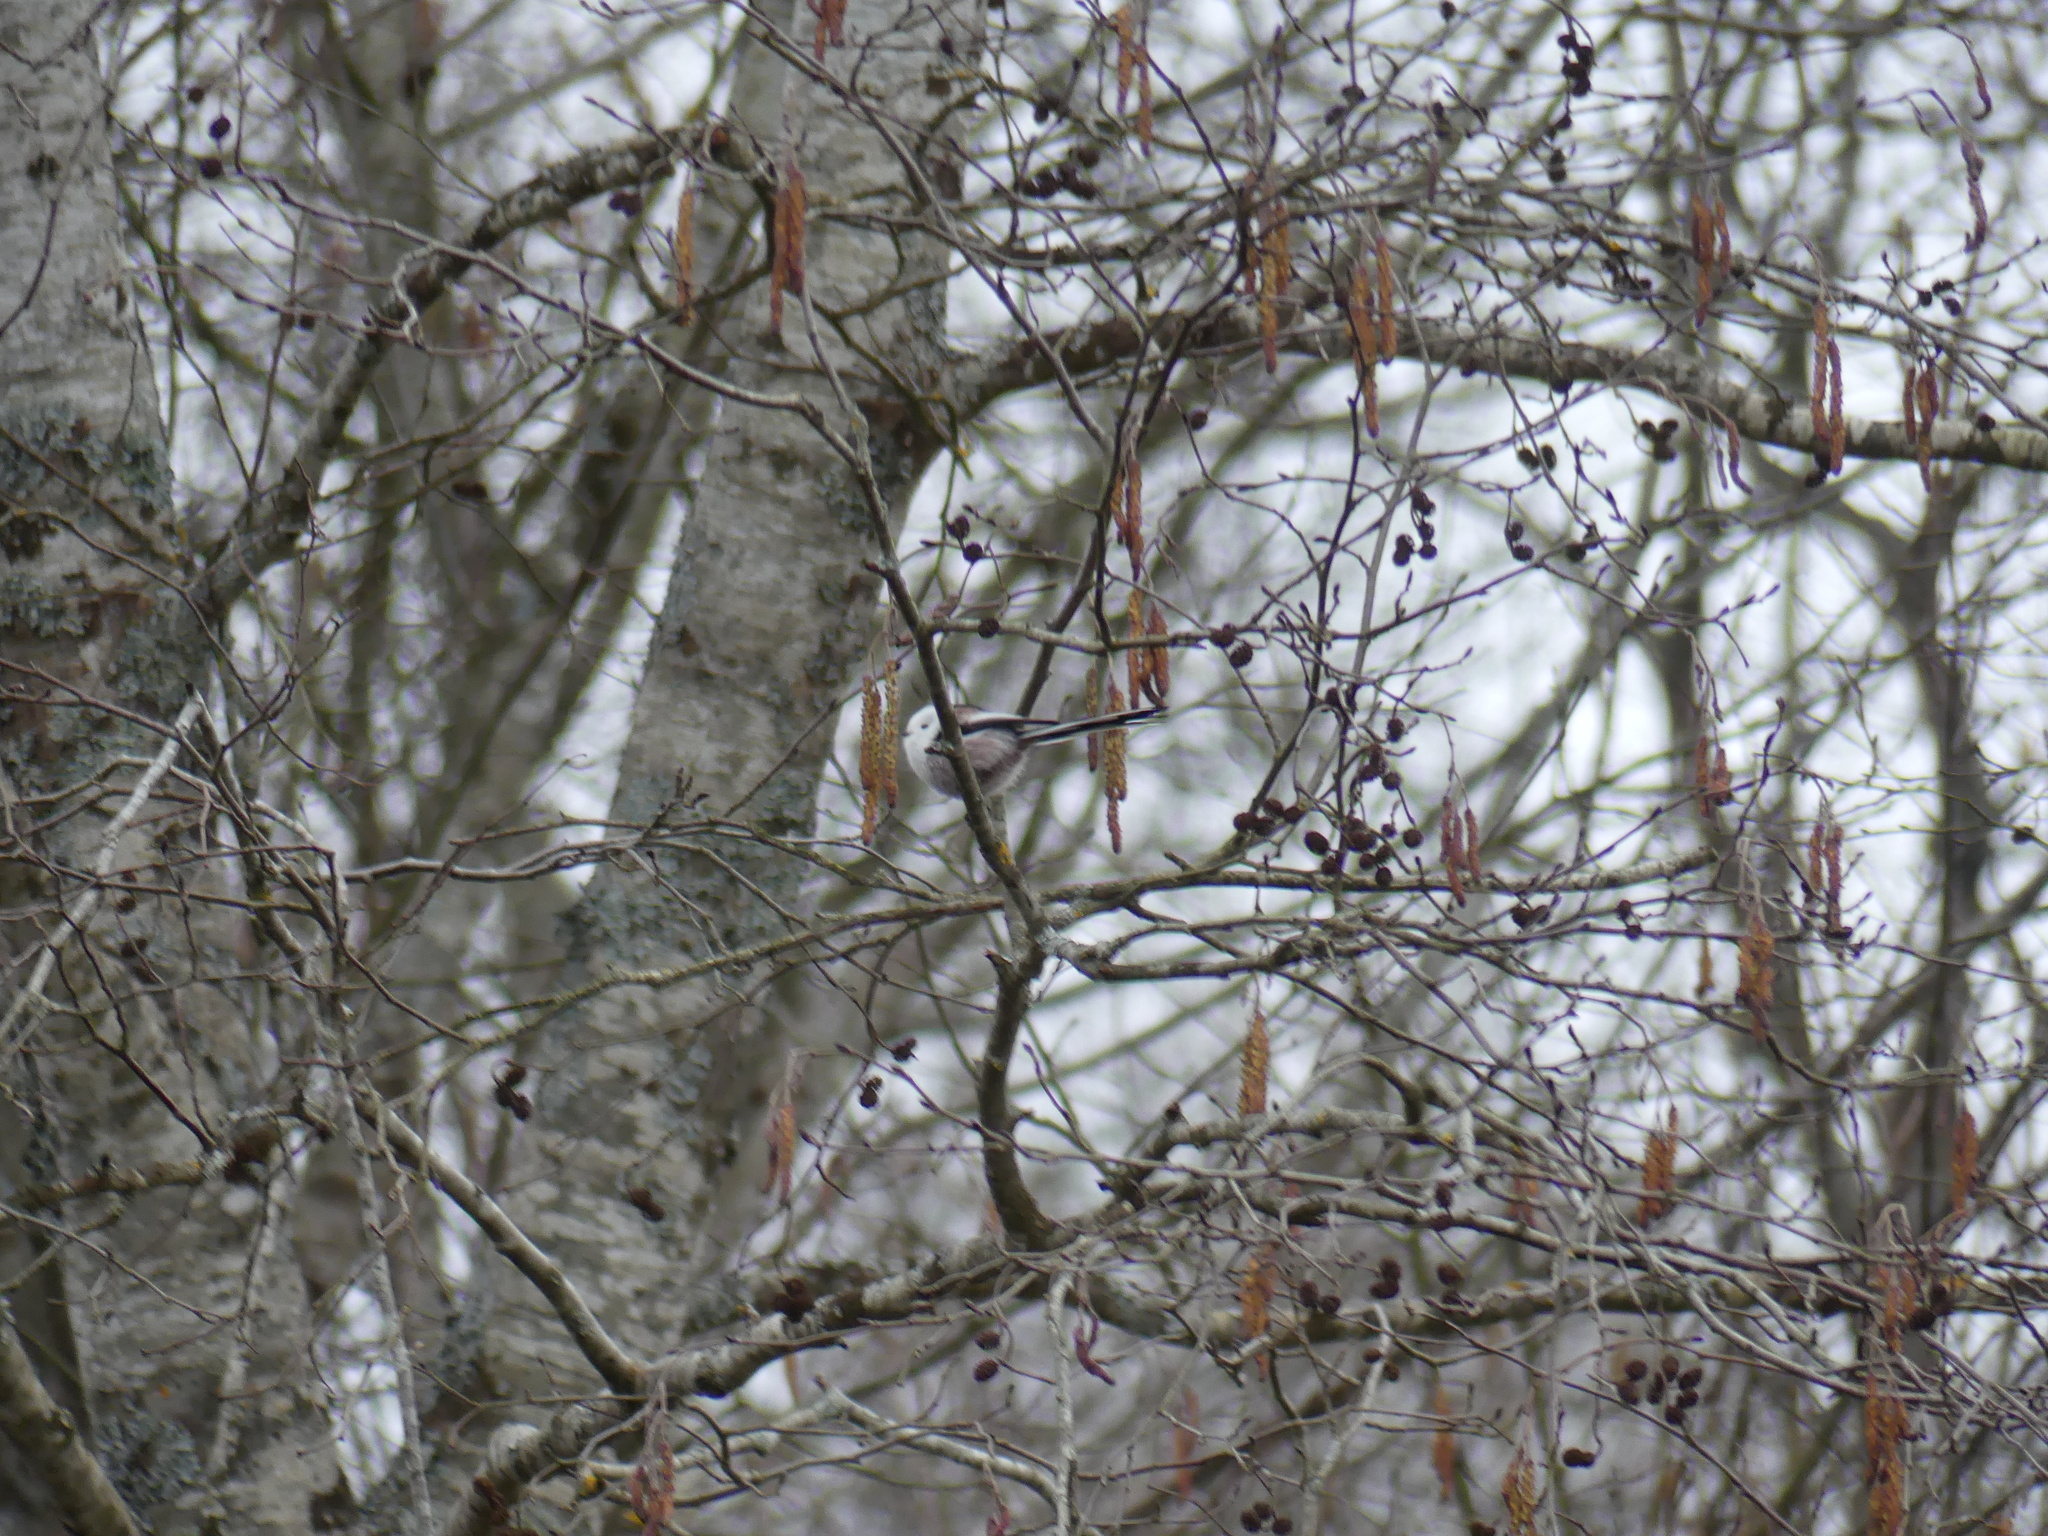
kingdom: Animalia
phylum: Chordata
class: Aves
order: Passeriformes
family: Aegithalidae
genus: Aegithalos
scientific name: Aegithalos caudatus
